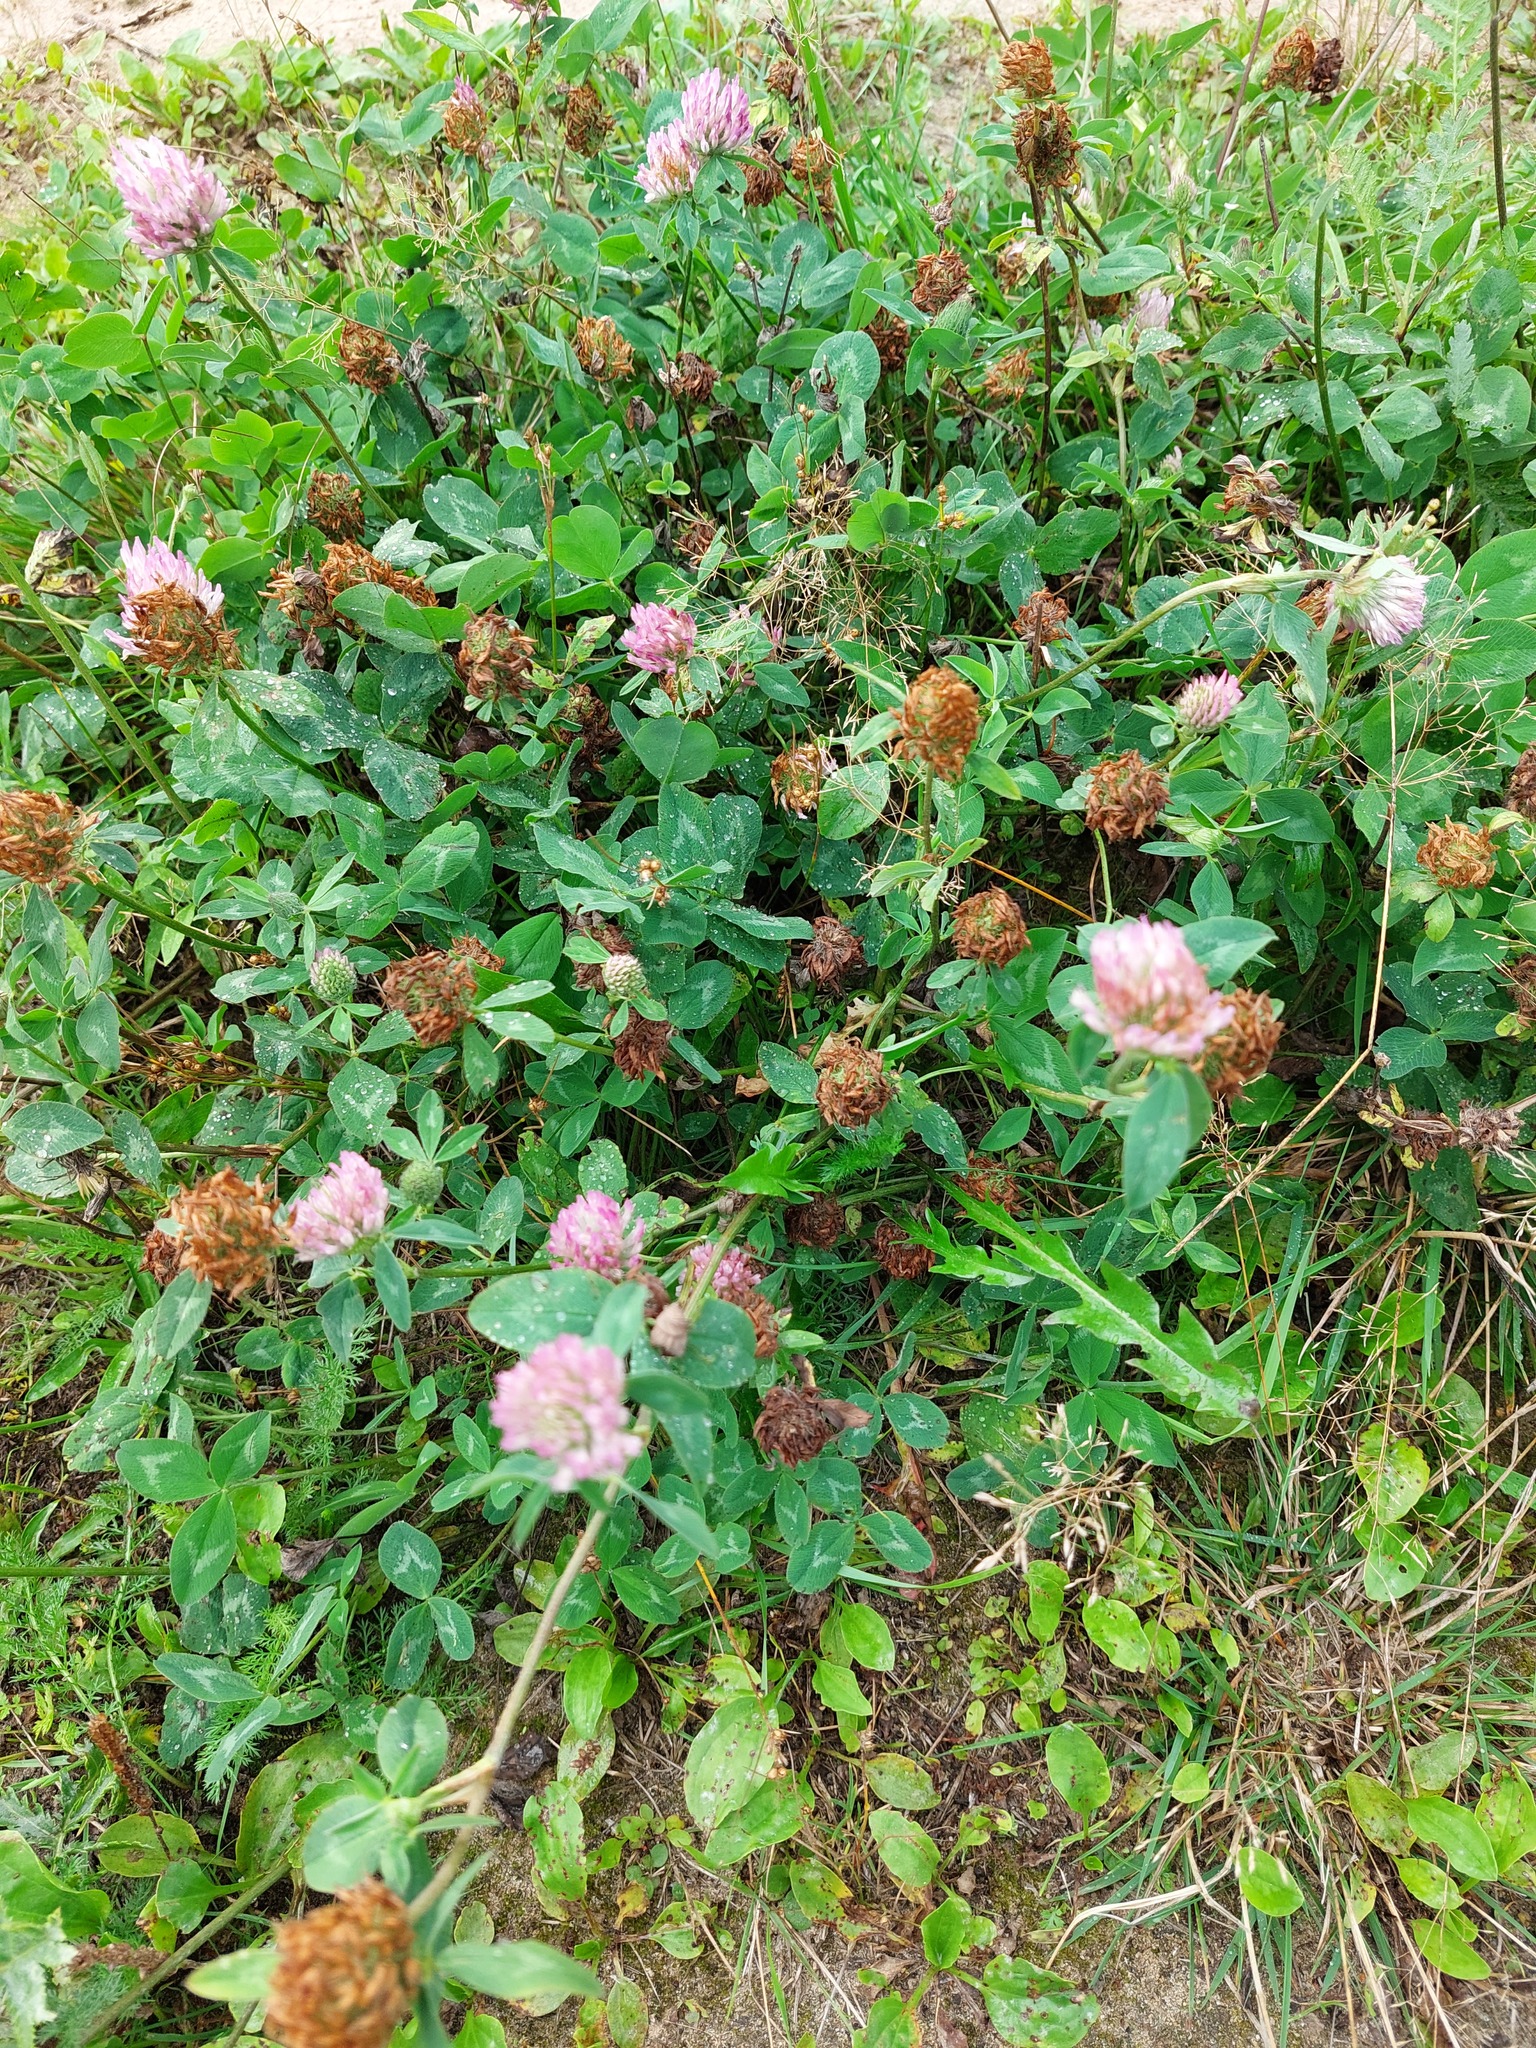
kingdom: Plantae
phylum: Tracheophyta
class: Magnoliopsida
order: Fabales
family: Fabaceae
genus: Trifolium
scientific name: Trifolium pratense
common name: Red clover
